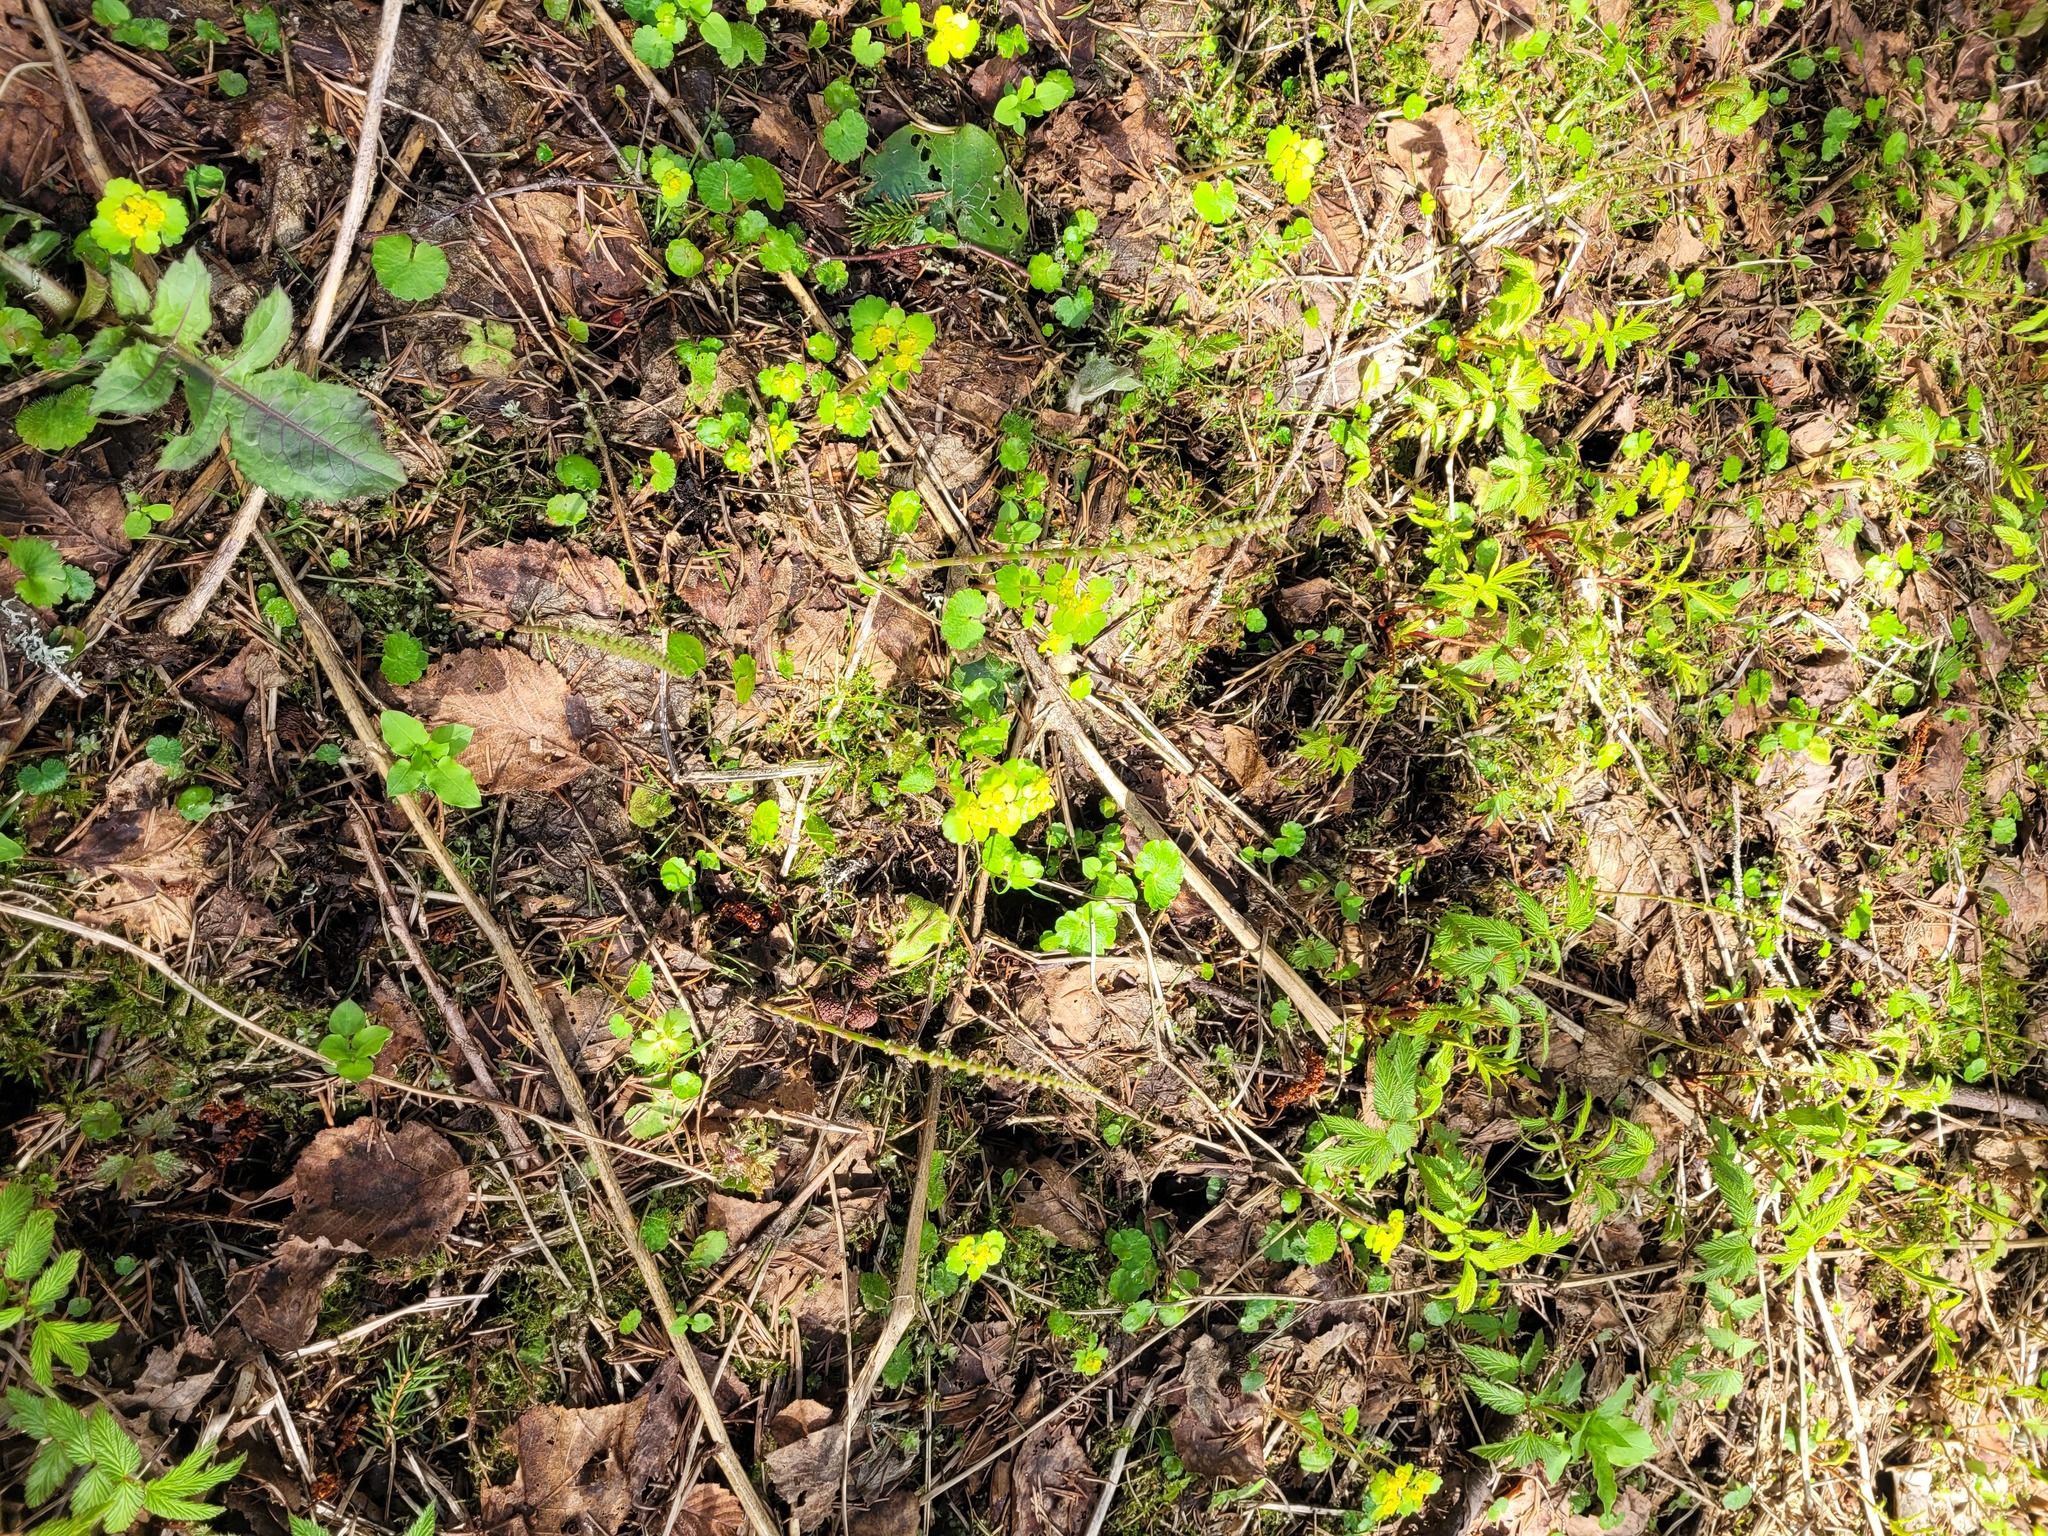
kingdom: Plantae
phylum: Tracheophyta
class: Magnoliopsida
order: Saxifragales
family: Saxifragaceae
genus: Chrysosplenium
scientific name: Chrysosplenium alternifolium
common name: Alternate-leaved golden-saxifrage
